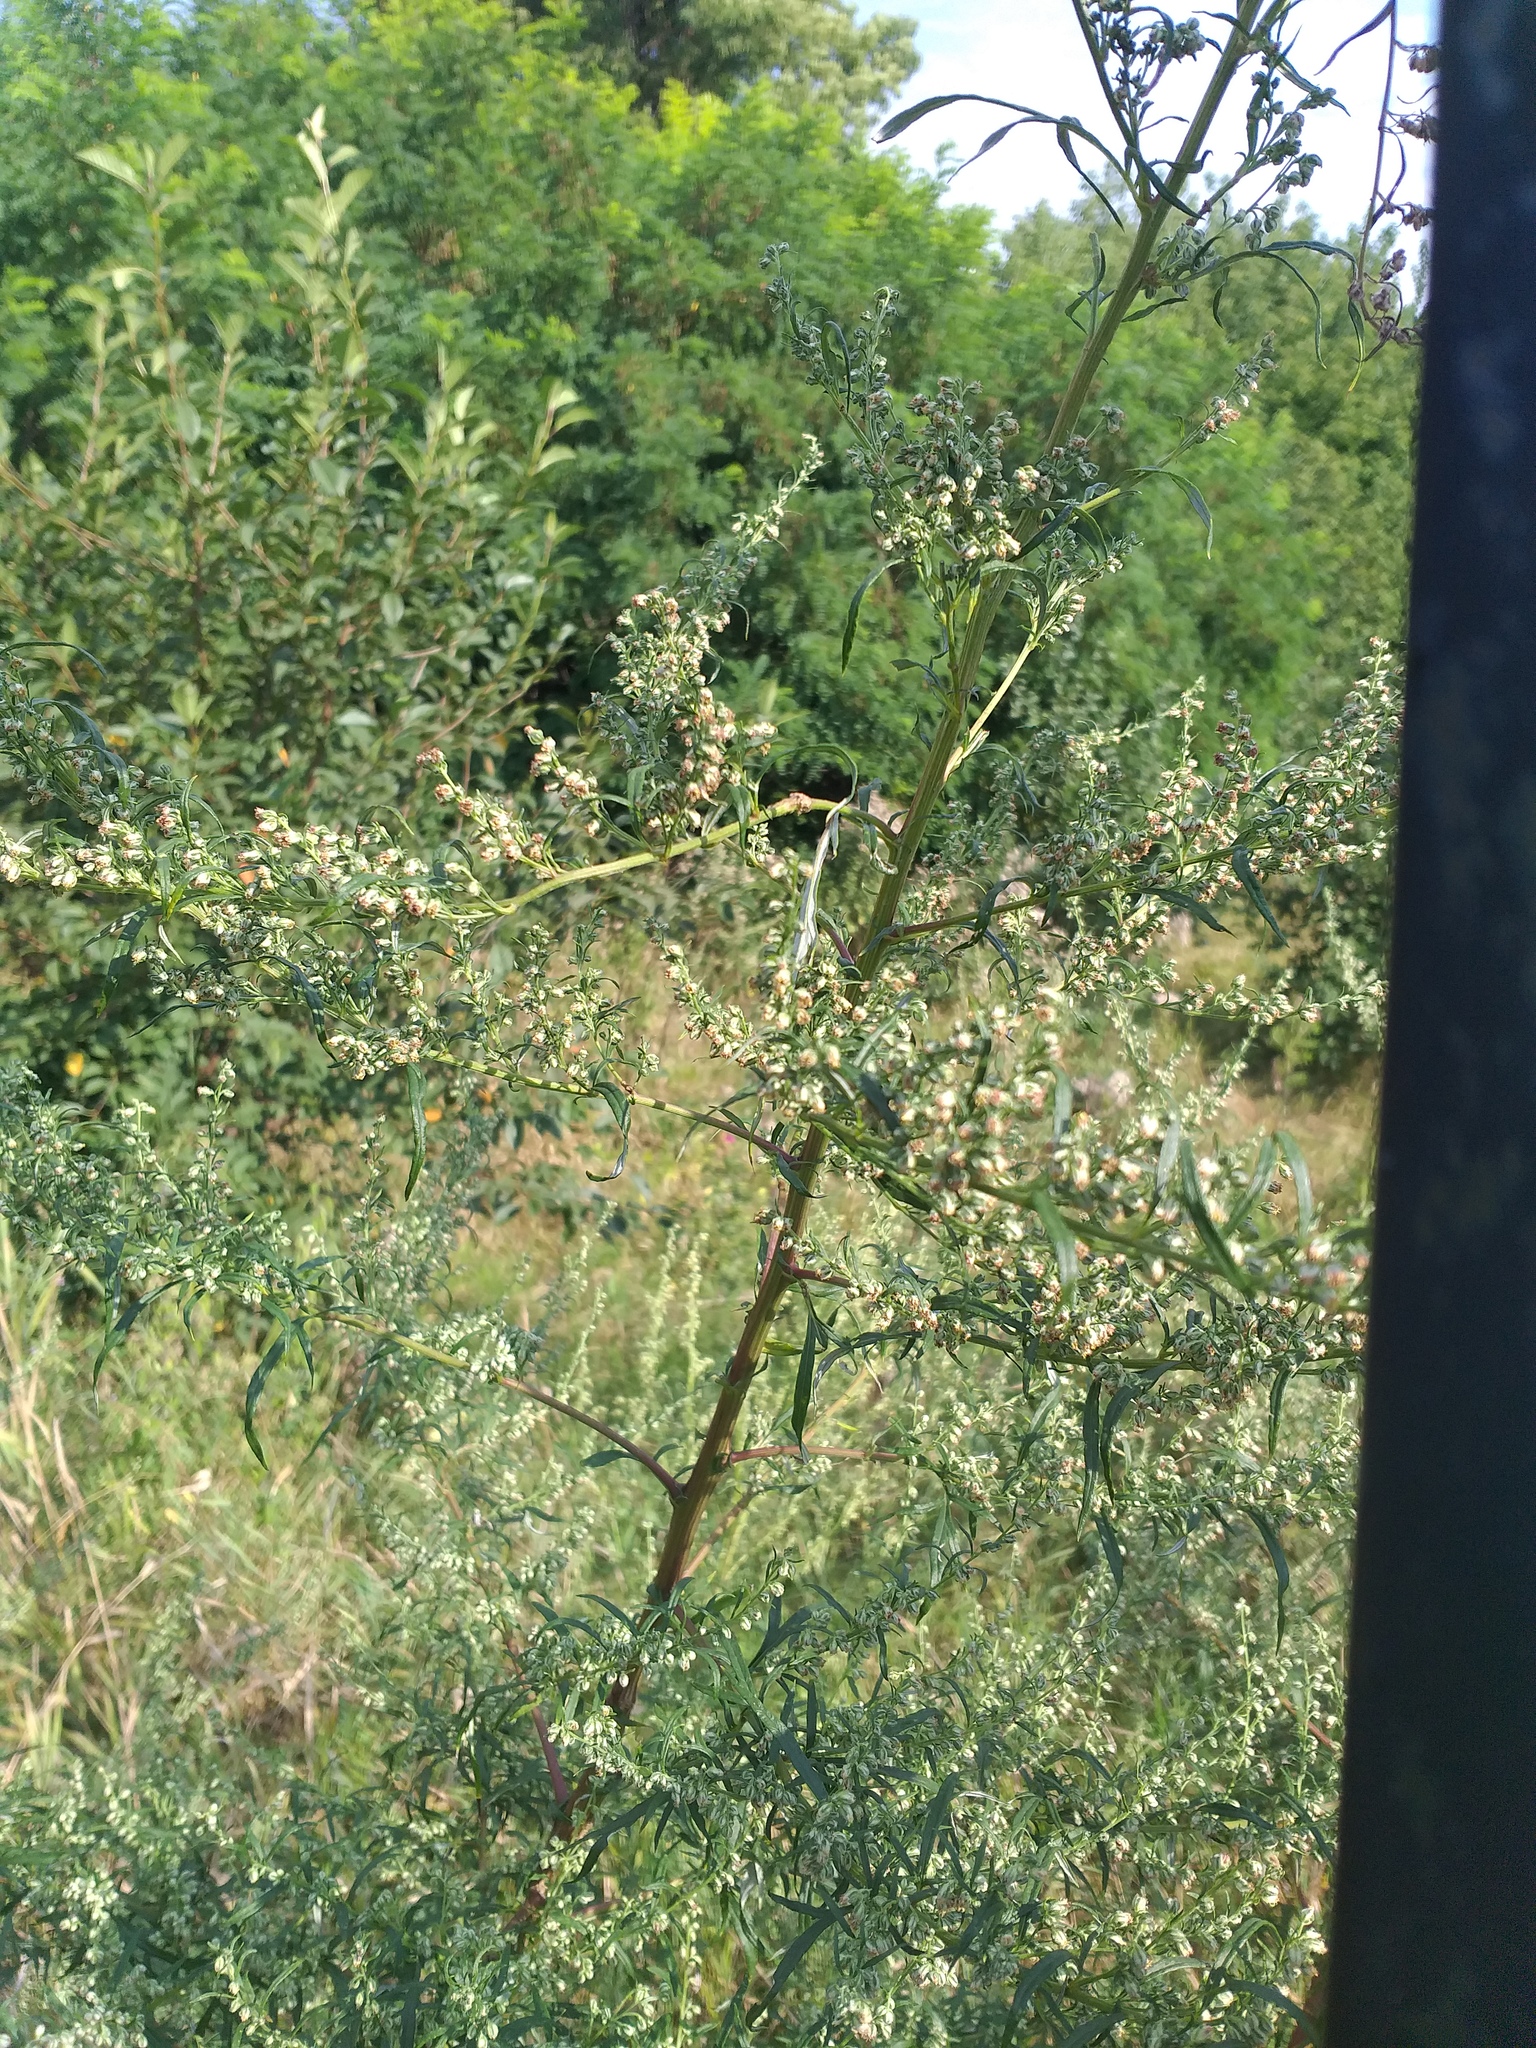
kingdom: Plantae
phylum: Tracheophyta
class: Magnoliopsida
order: Asterales
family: Asteraceae
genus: Artemisia
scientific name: Artemisia vulgaris
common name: Mugwort
